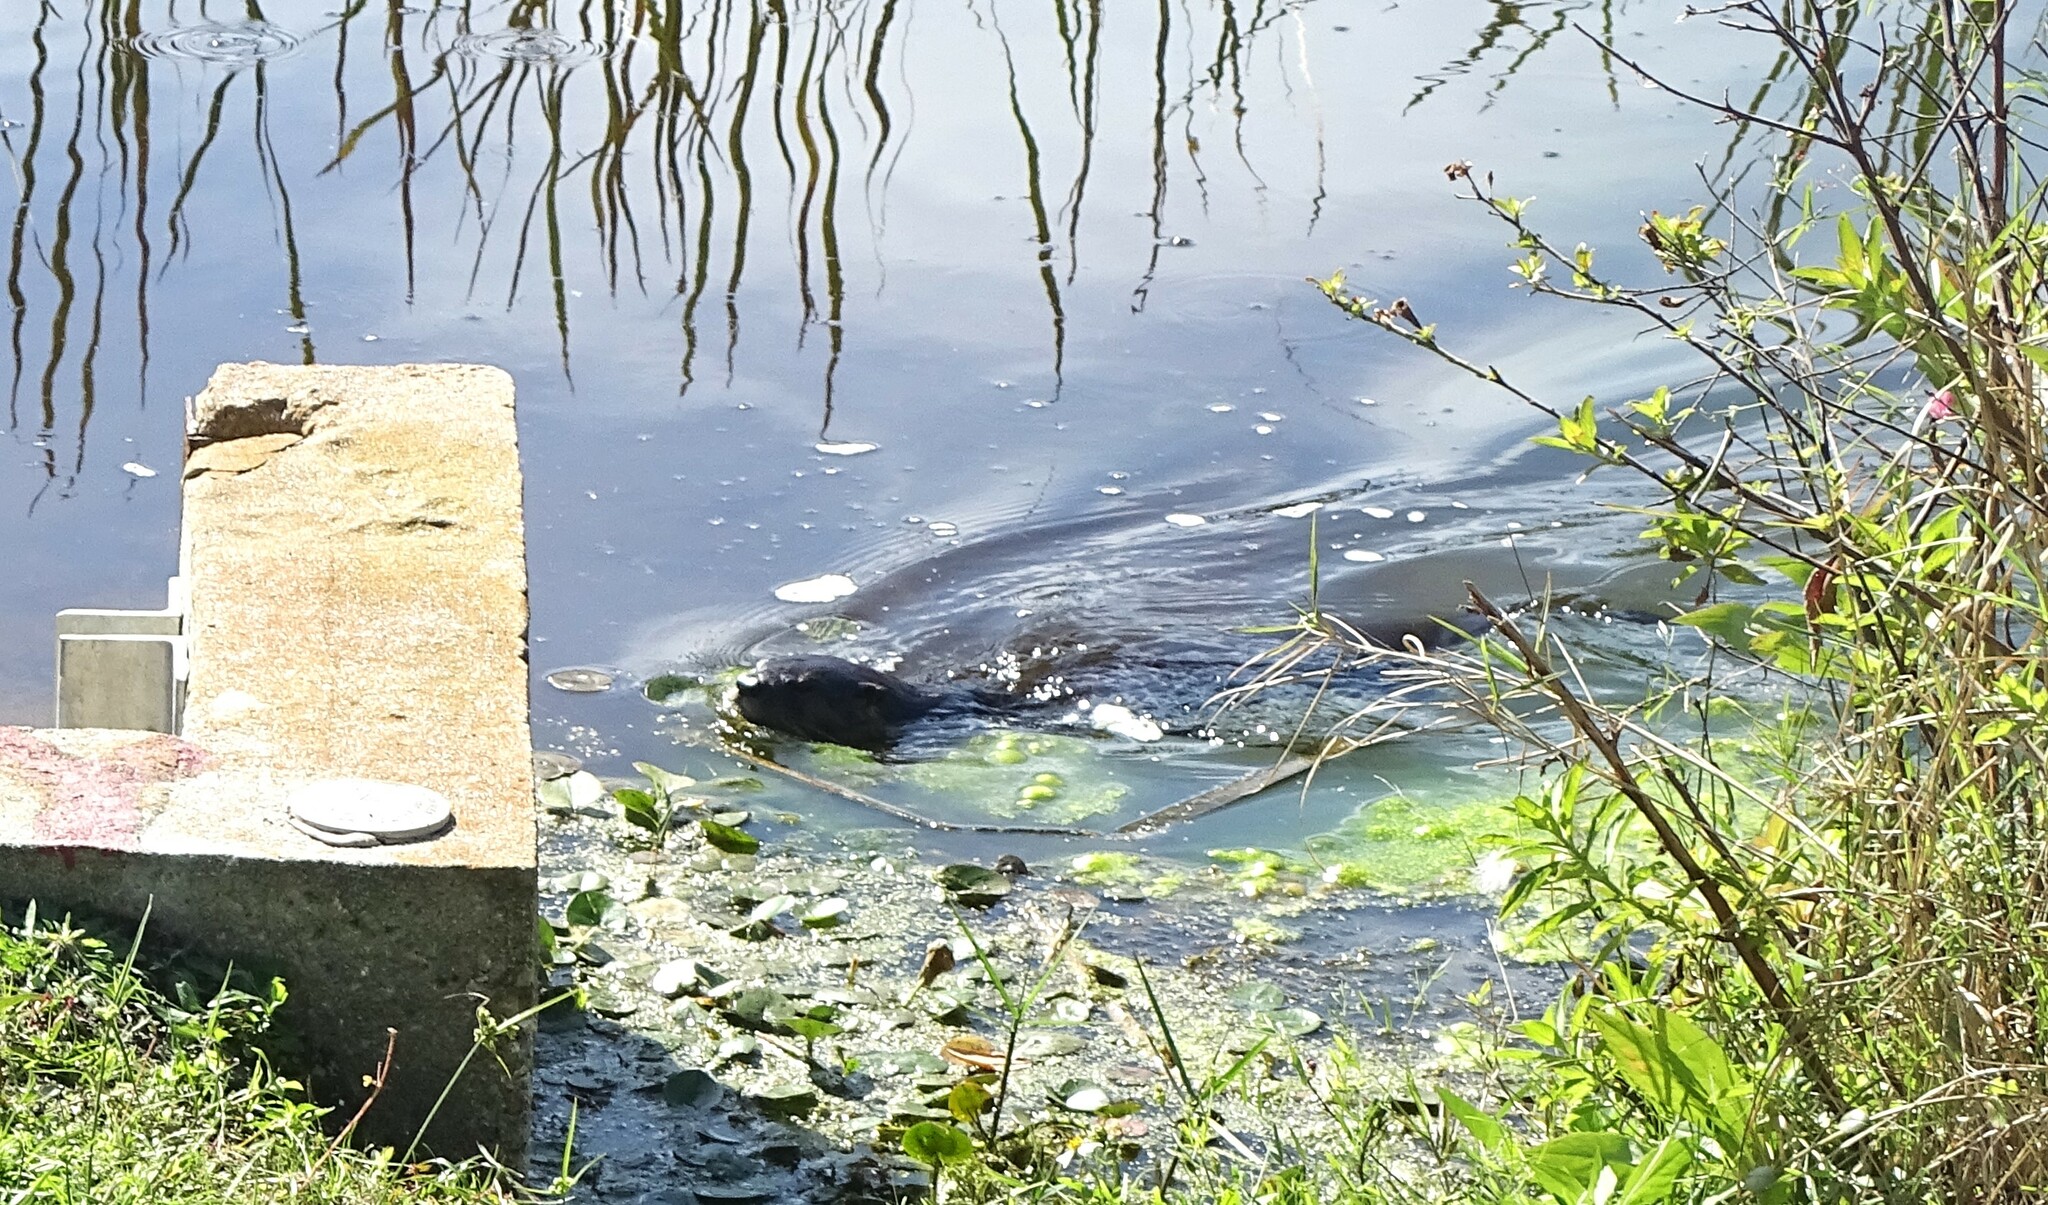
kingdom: Animalia
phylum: Chordata
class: Mammalia
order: Carnivora
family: Mustelidae
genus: Lontra
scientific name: Lontra canadensis
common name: North american river otter
